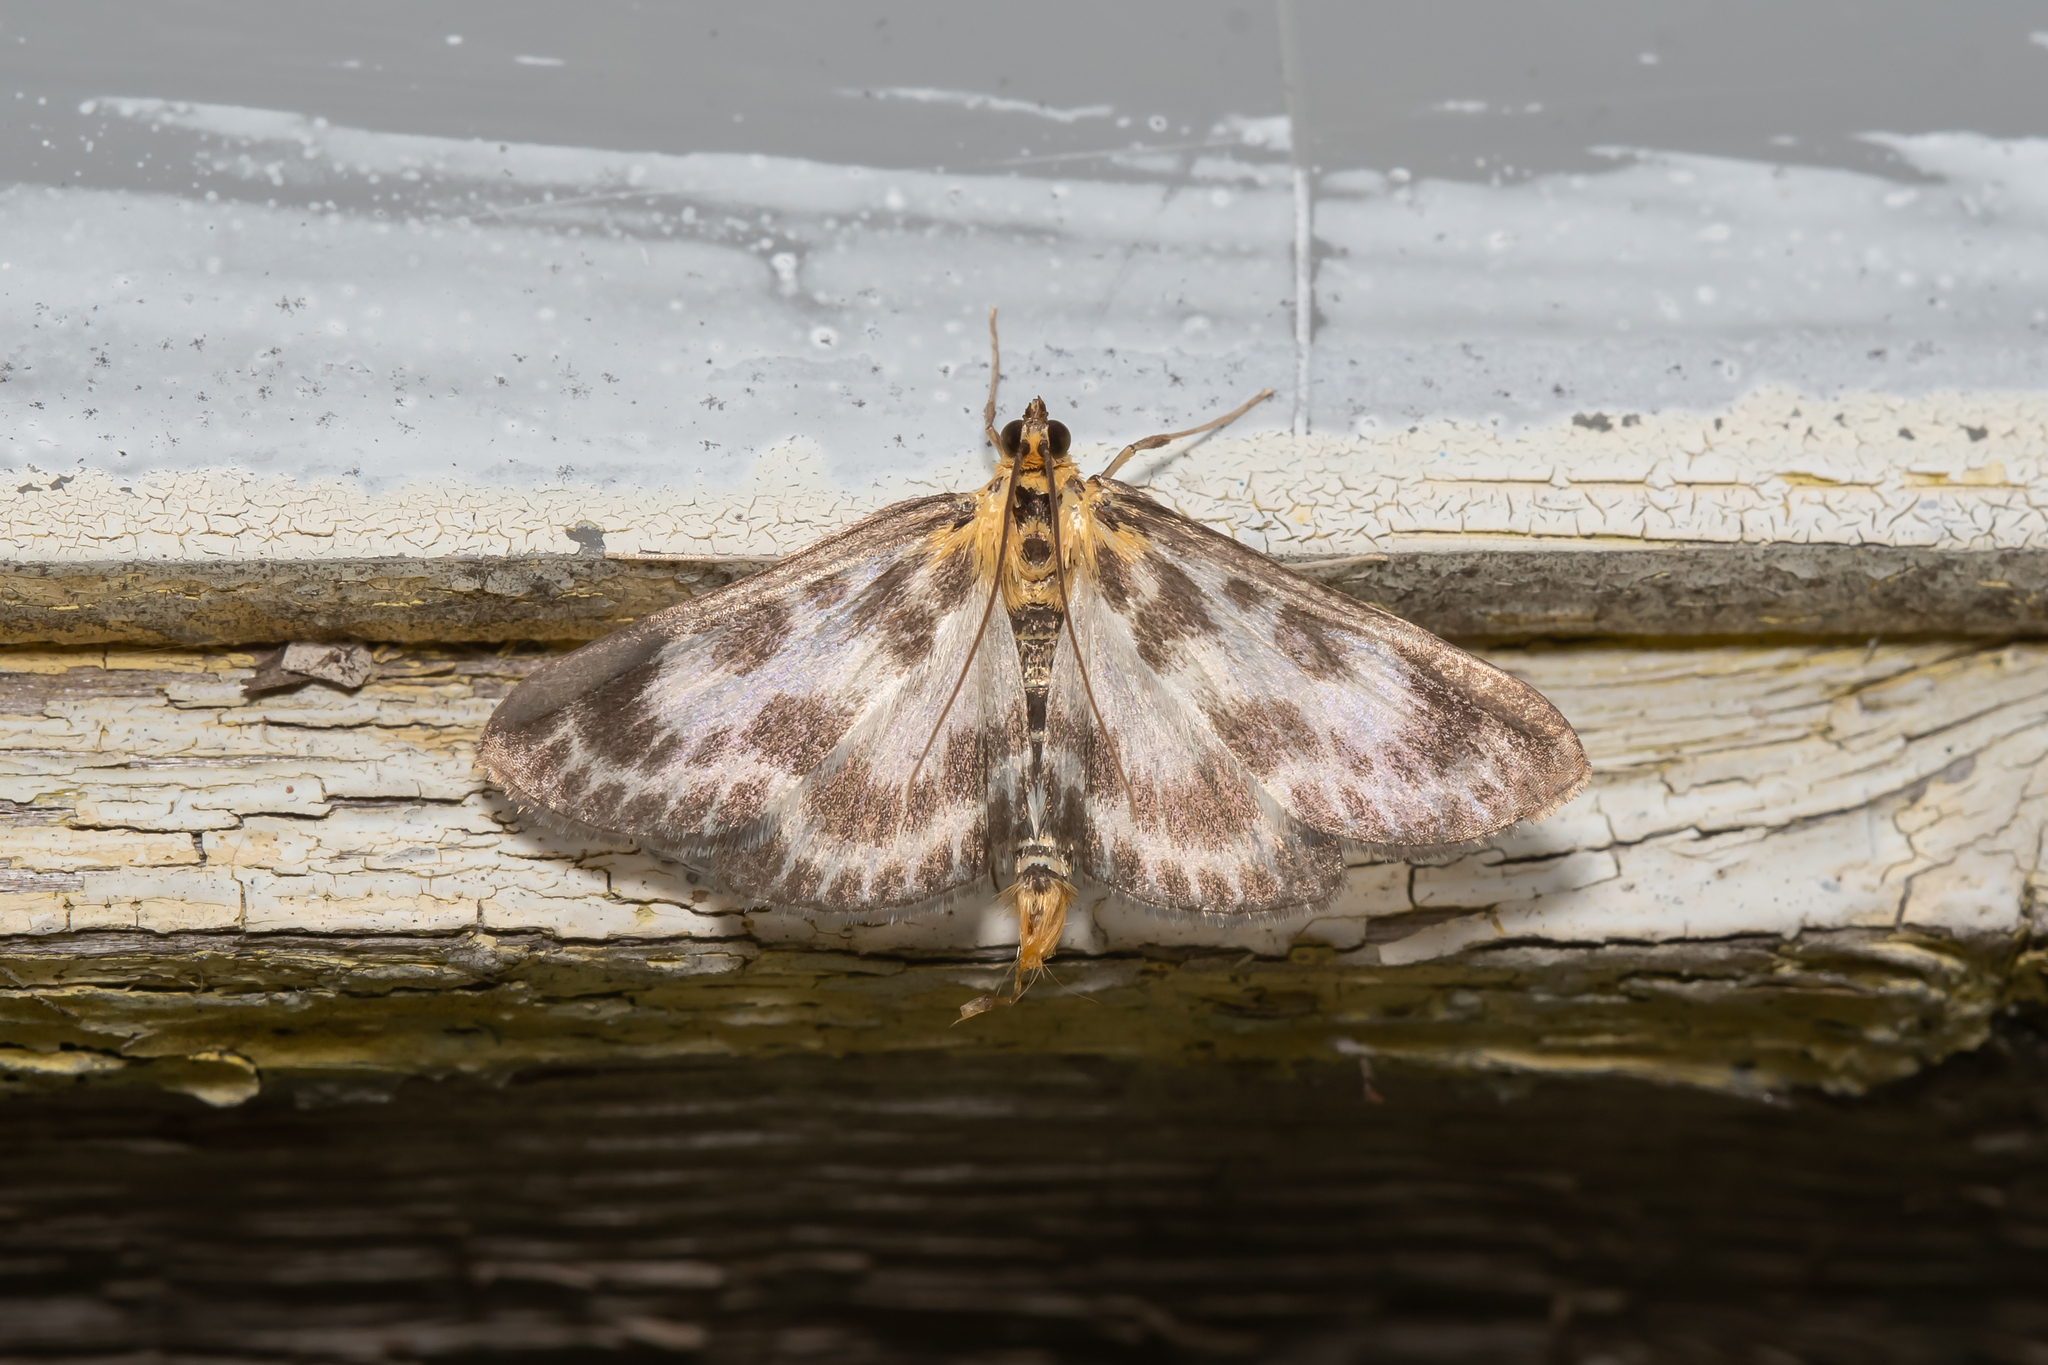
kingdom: Animalia
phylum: Arthropoda
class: Insecta
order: Lepidoptera
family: Crambidae
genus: Anania
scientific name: Anania hortulata
